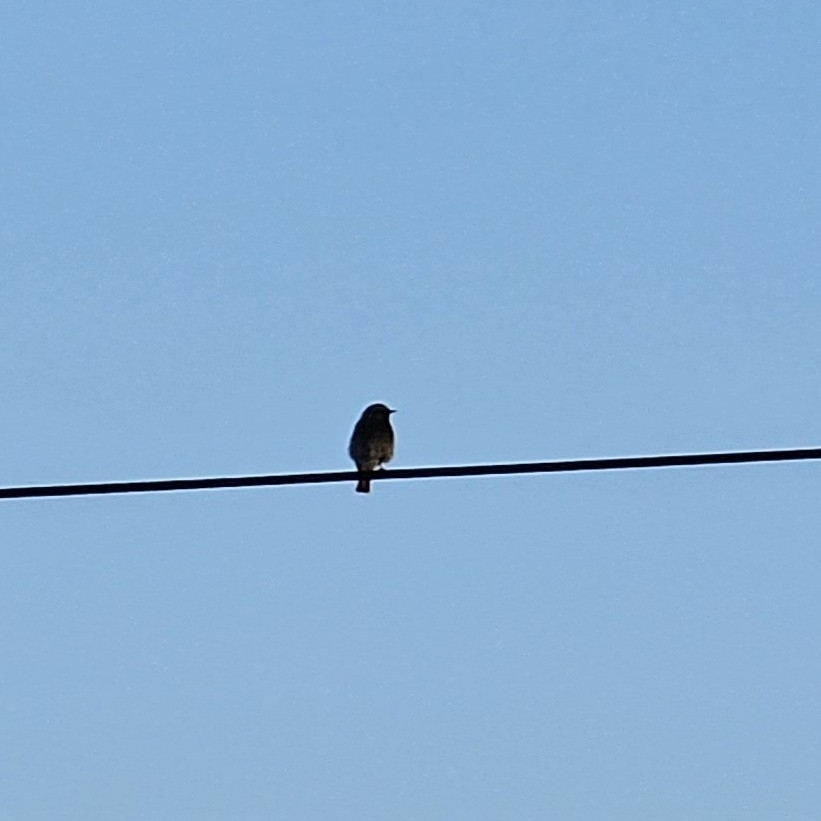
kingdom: Animalia
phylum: Chordata
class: Aves
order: Passeriformes
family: Muscicapidae
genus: Phoenicurus
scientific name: Phoenicurus ochruros
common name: Black redstart
